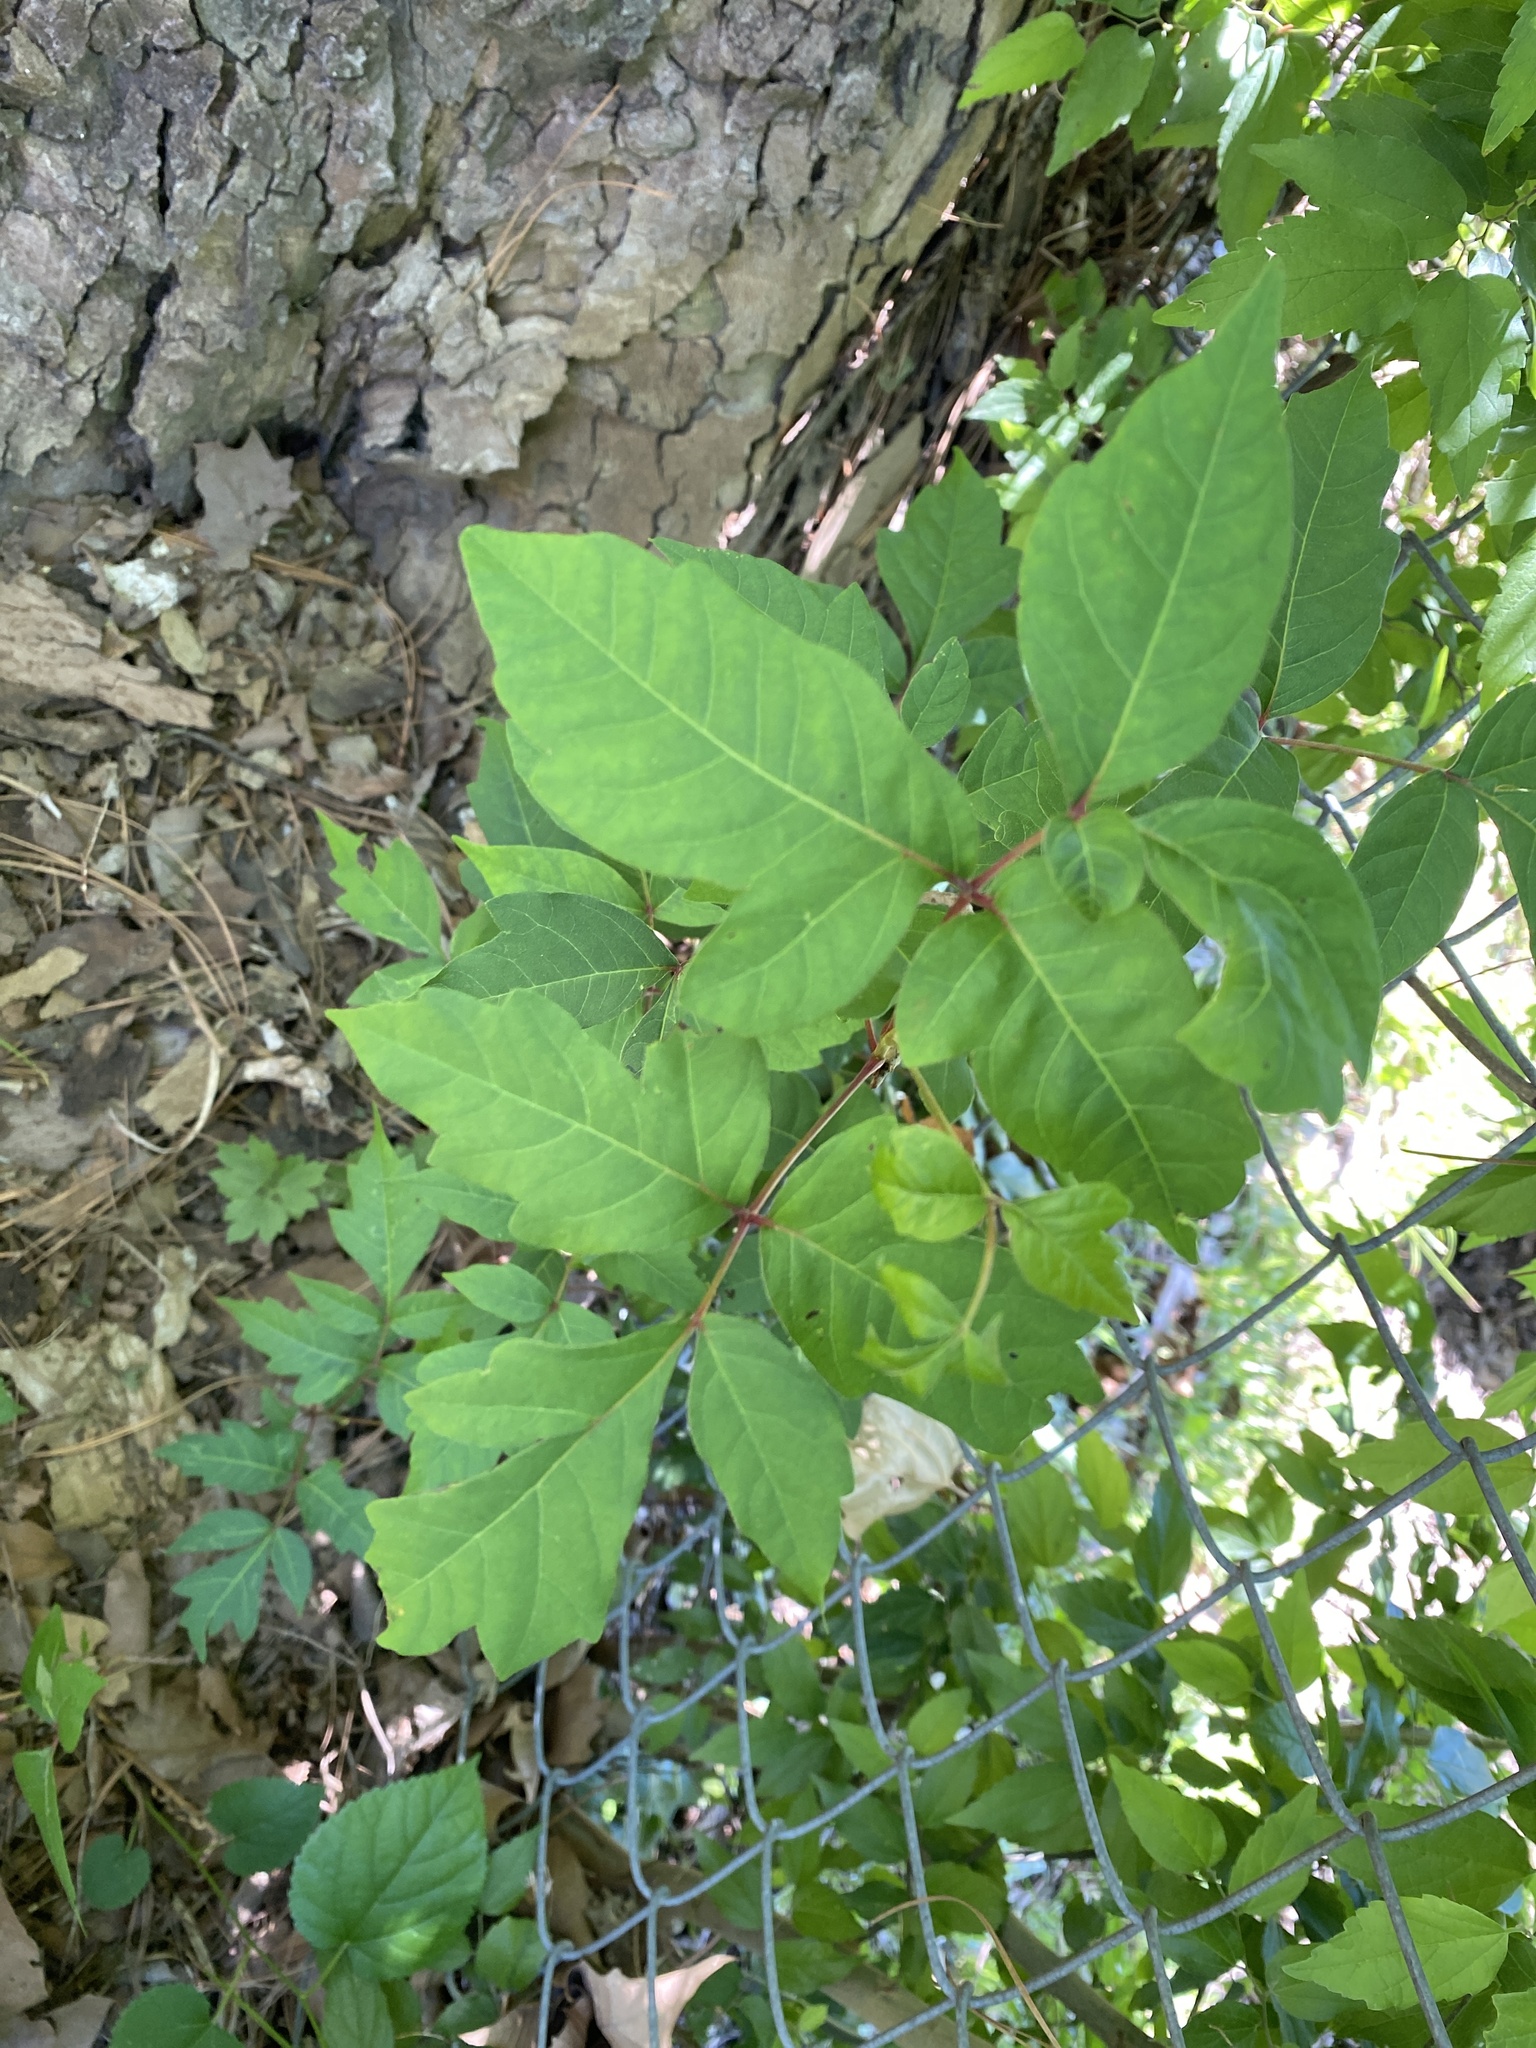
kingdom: Plantae
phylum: Tracheophyta
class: Magnoliopsida
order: Sapindales
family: Anacardiaceae
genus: Toxicodendron
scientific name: Toxicodendron radicans
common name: Poison ivy
